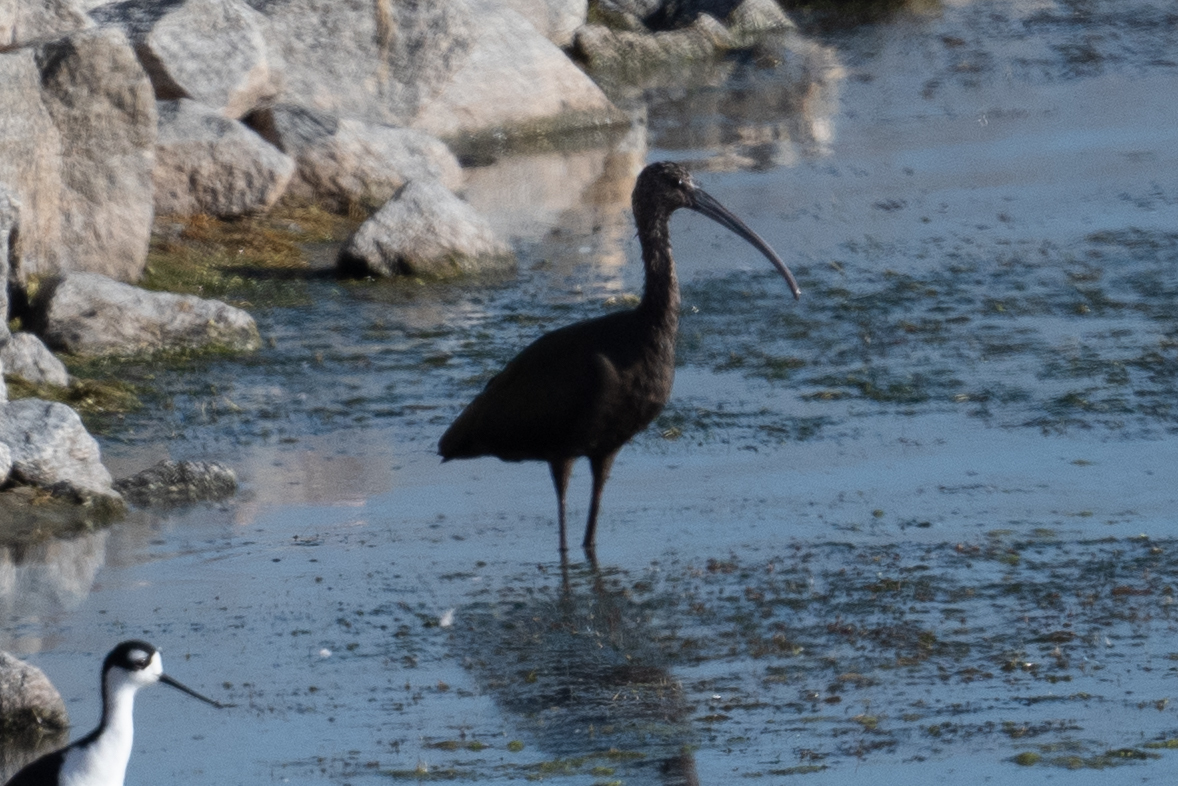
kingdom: Animalia
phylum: Chordata
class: Aves
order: Pelecaniformes
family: Threskiornithidae
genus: Plegadis
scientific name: Plegadis chihi
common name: White-faced ibis
